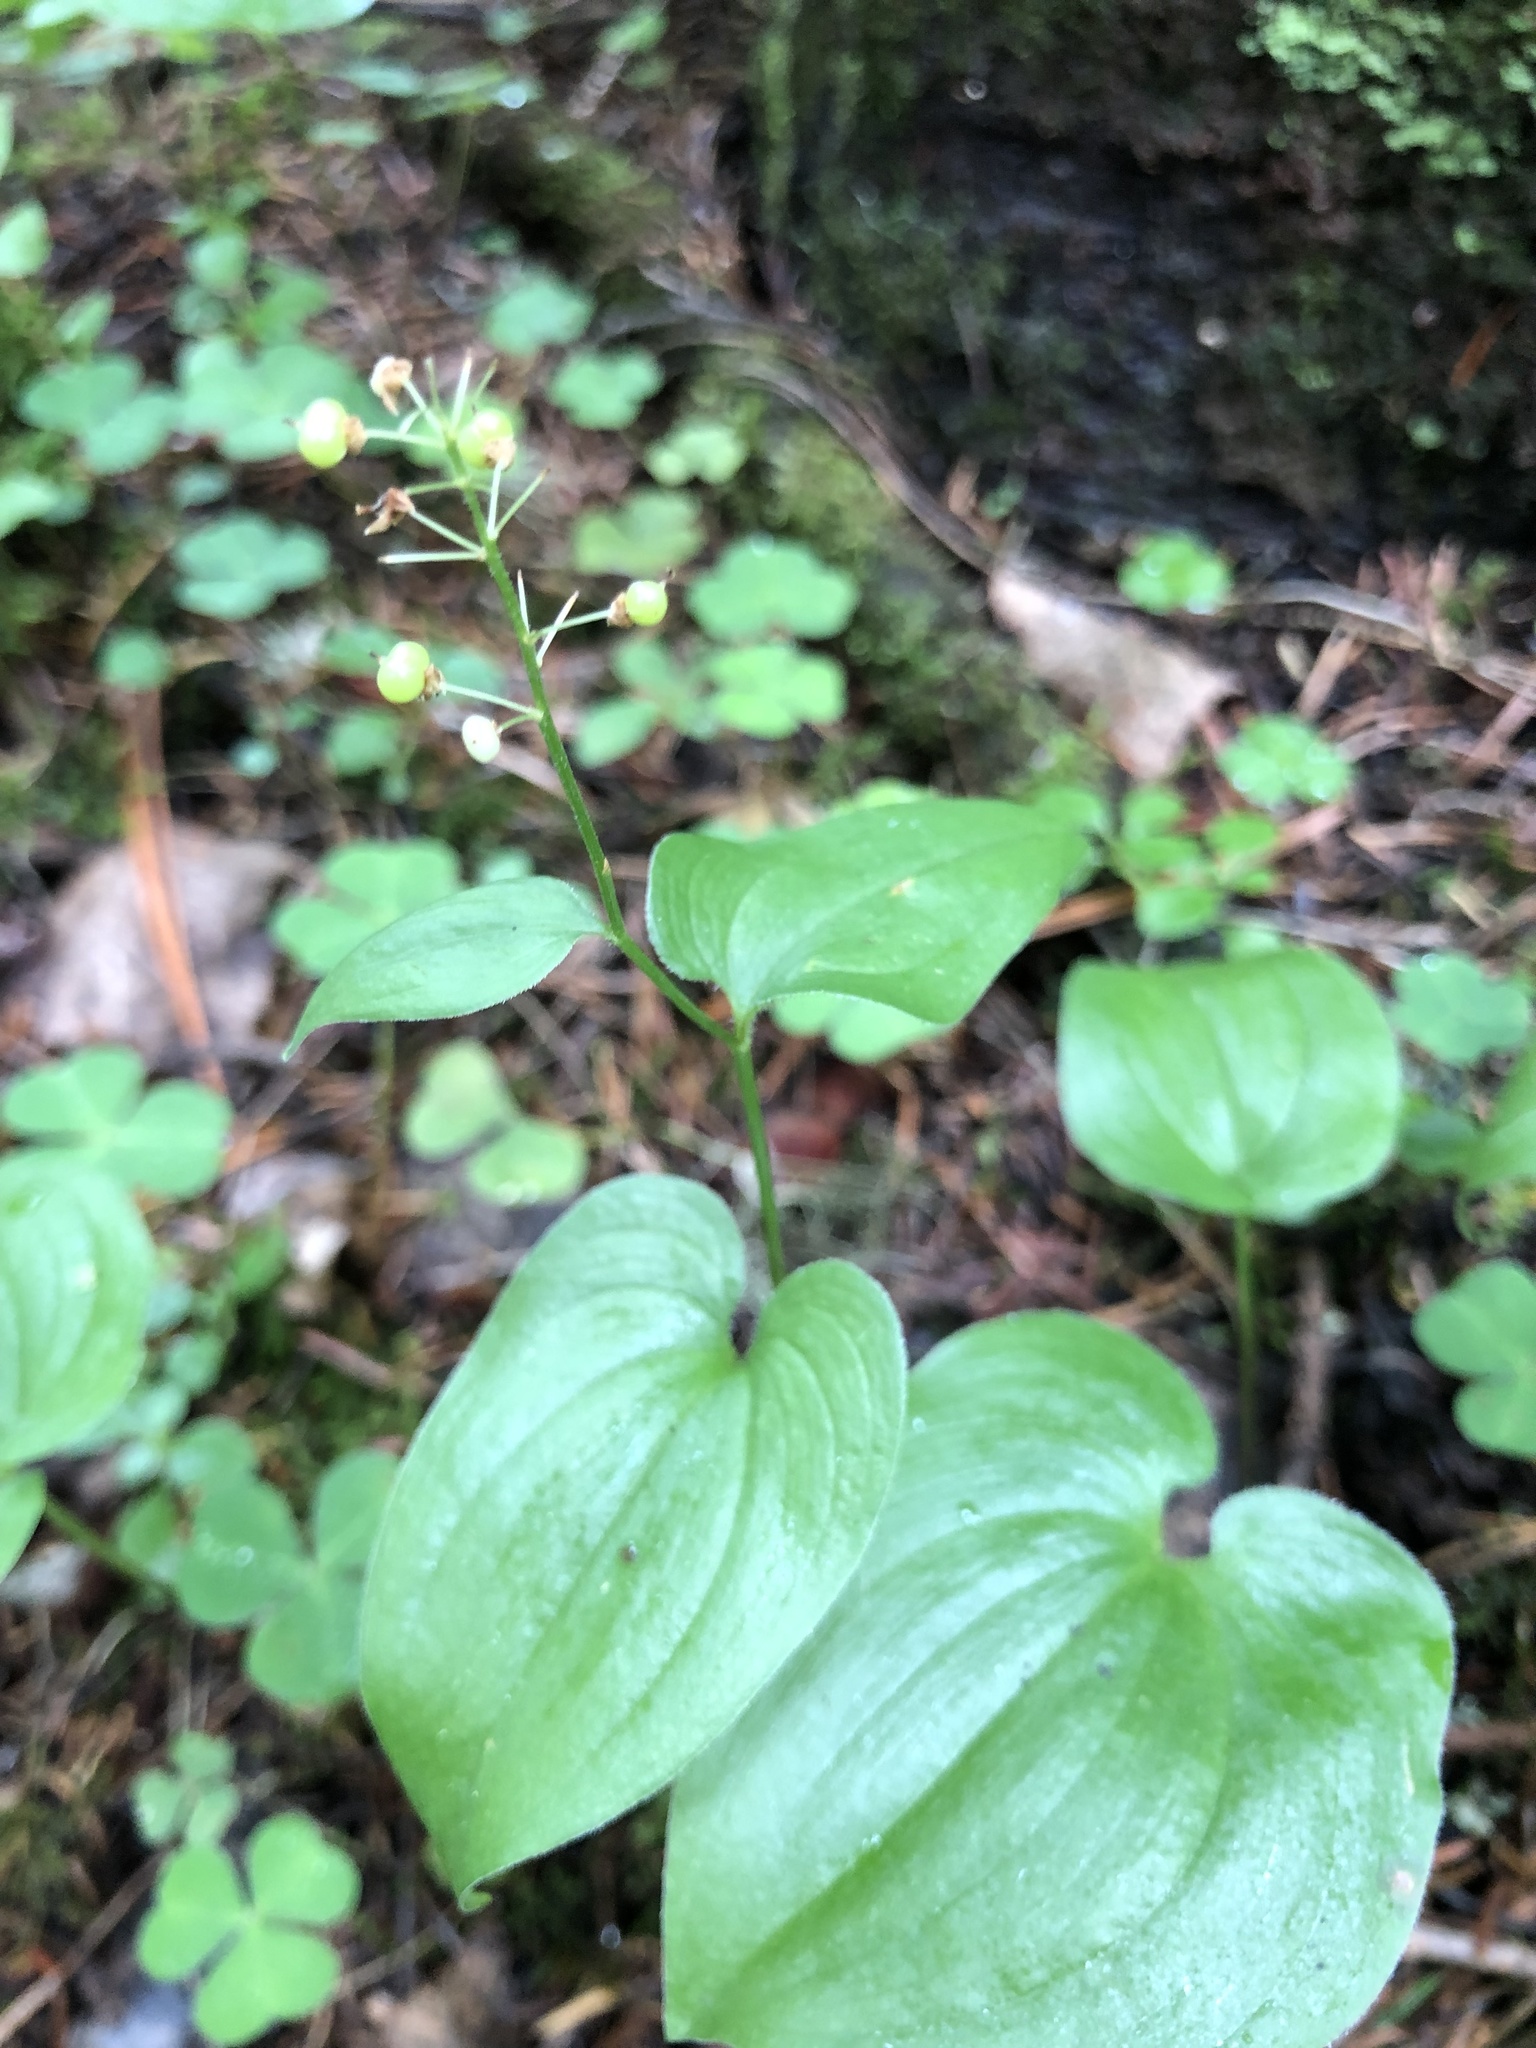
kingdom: Plantae
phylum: Tracheophyta
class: Liliopsida
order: Asparagales
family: Asparagaceae
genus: Maianthemum
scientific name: Maianthemum bifolium
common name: May lily
